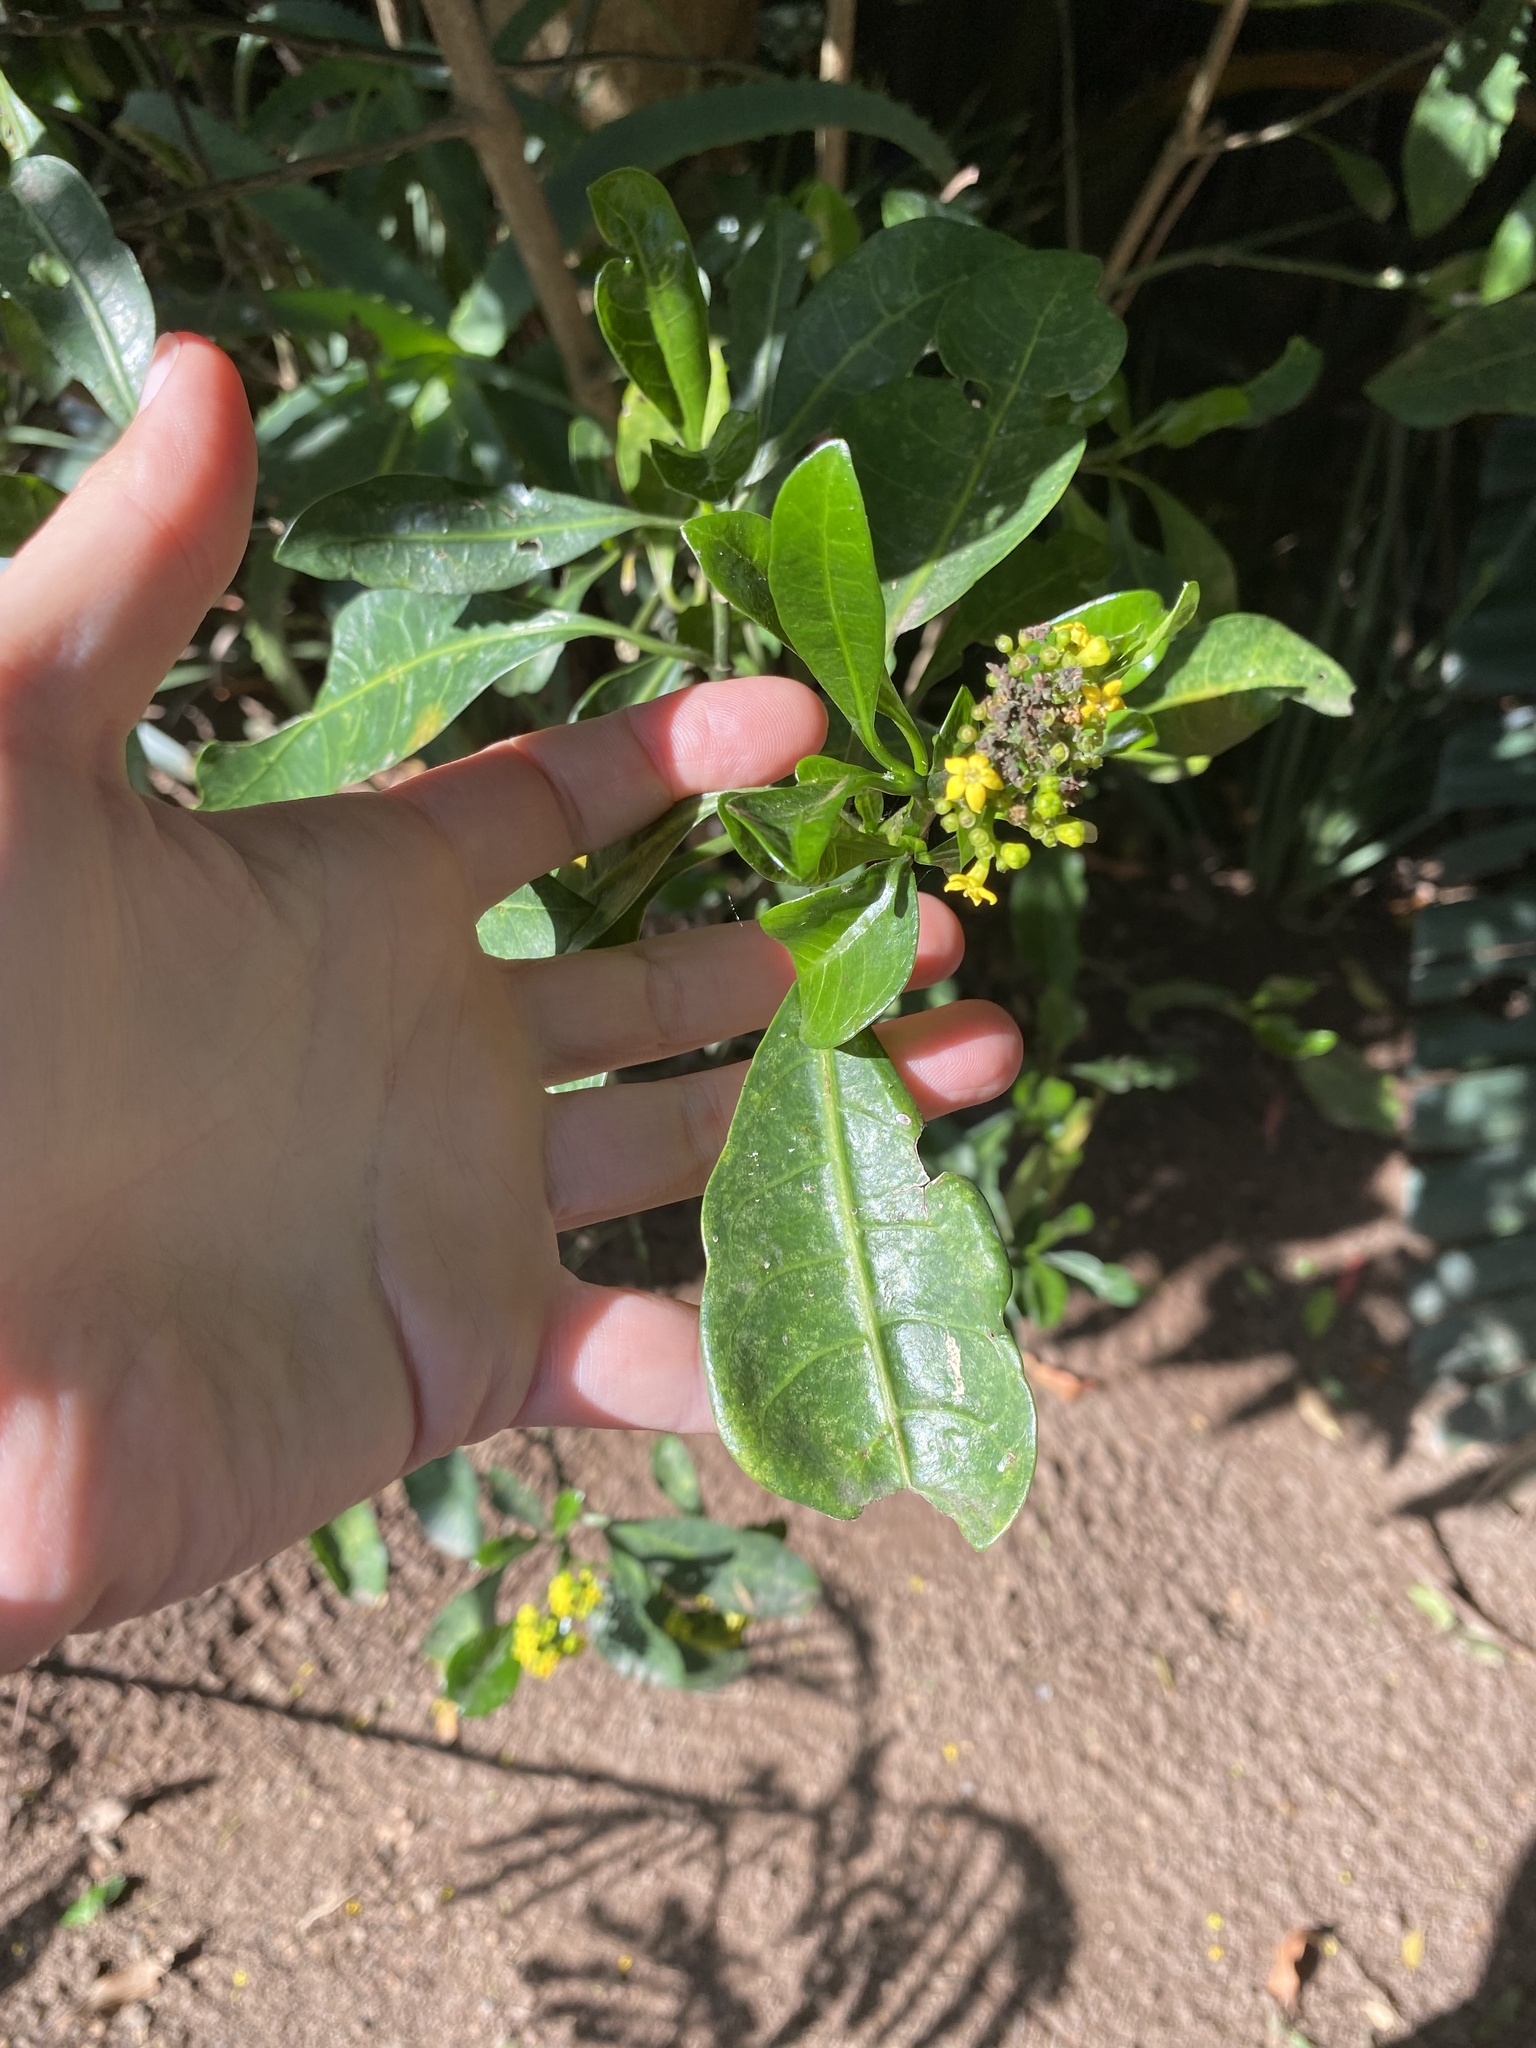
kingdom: Plantae
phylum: Tracheophyta
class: Magnoliopsida
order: Gentianales
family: Rubiaceae
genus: Psychotria
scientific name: Psychotria capensis
